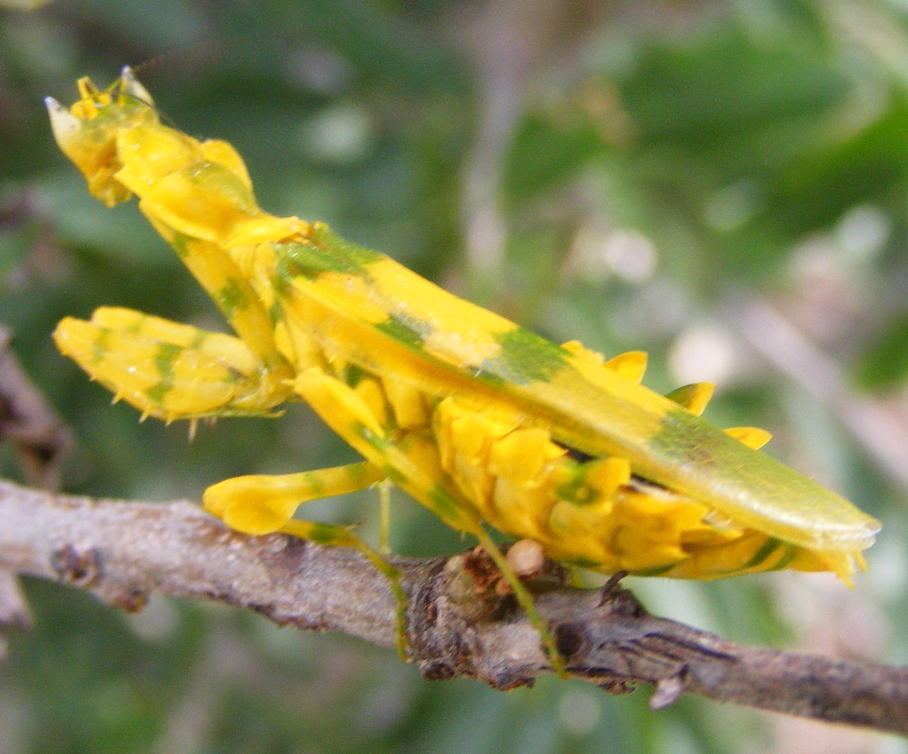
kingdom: Animalia
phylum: Arthropoda
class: Insecta
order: Mantodea
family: Galinthiadidae
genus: Harpagomantis
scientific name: Harpagomantis tricolor
